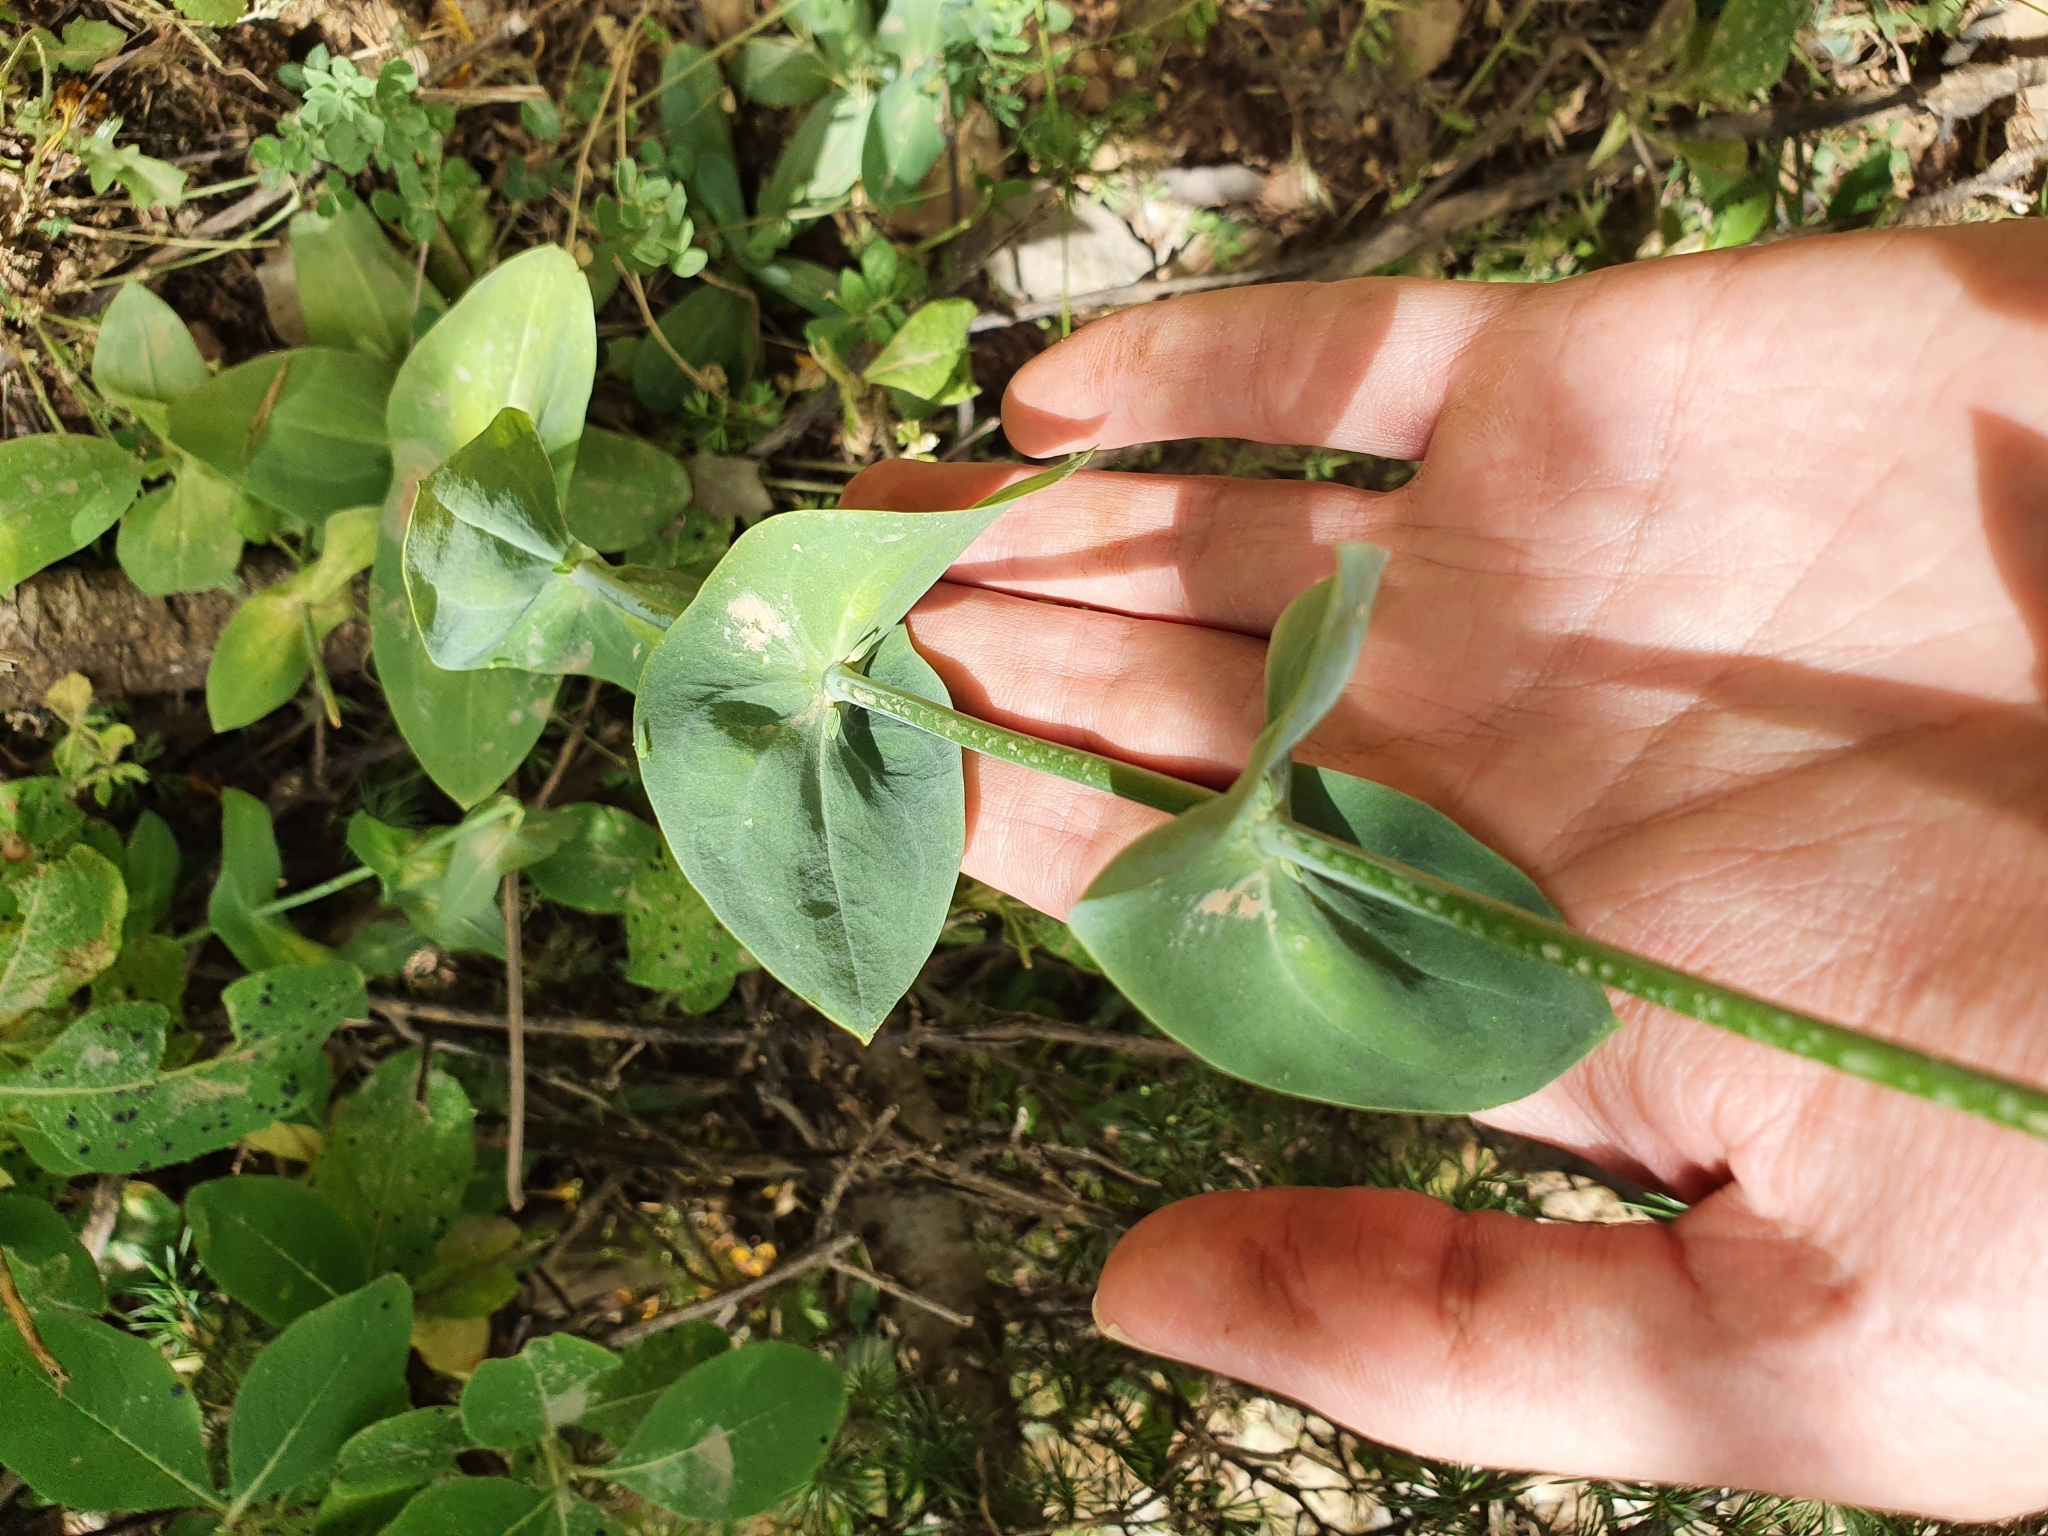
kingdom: Plantae
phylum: Tracheophyta
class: Magnoliopsida
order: Gentianales
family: Gentianaceae
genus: Blackstonia
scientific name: Blackstonia grandiflora
